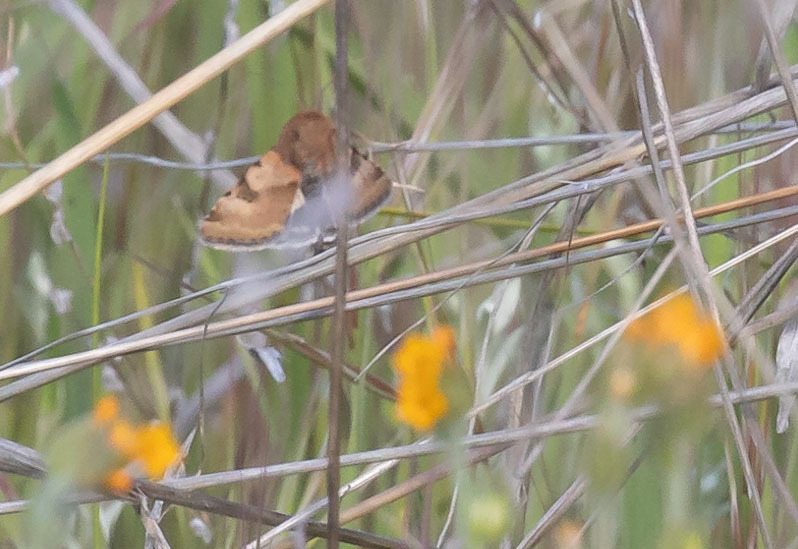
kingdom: Animalia
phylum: Arthropoda
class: Insecta
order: Lepidoptera
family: Noctuidae
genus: Heliothis
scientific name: Heliothis phloxiphaga
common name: Darker spotted straw moth
